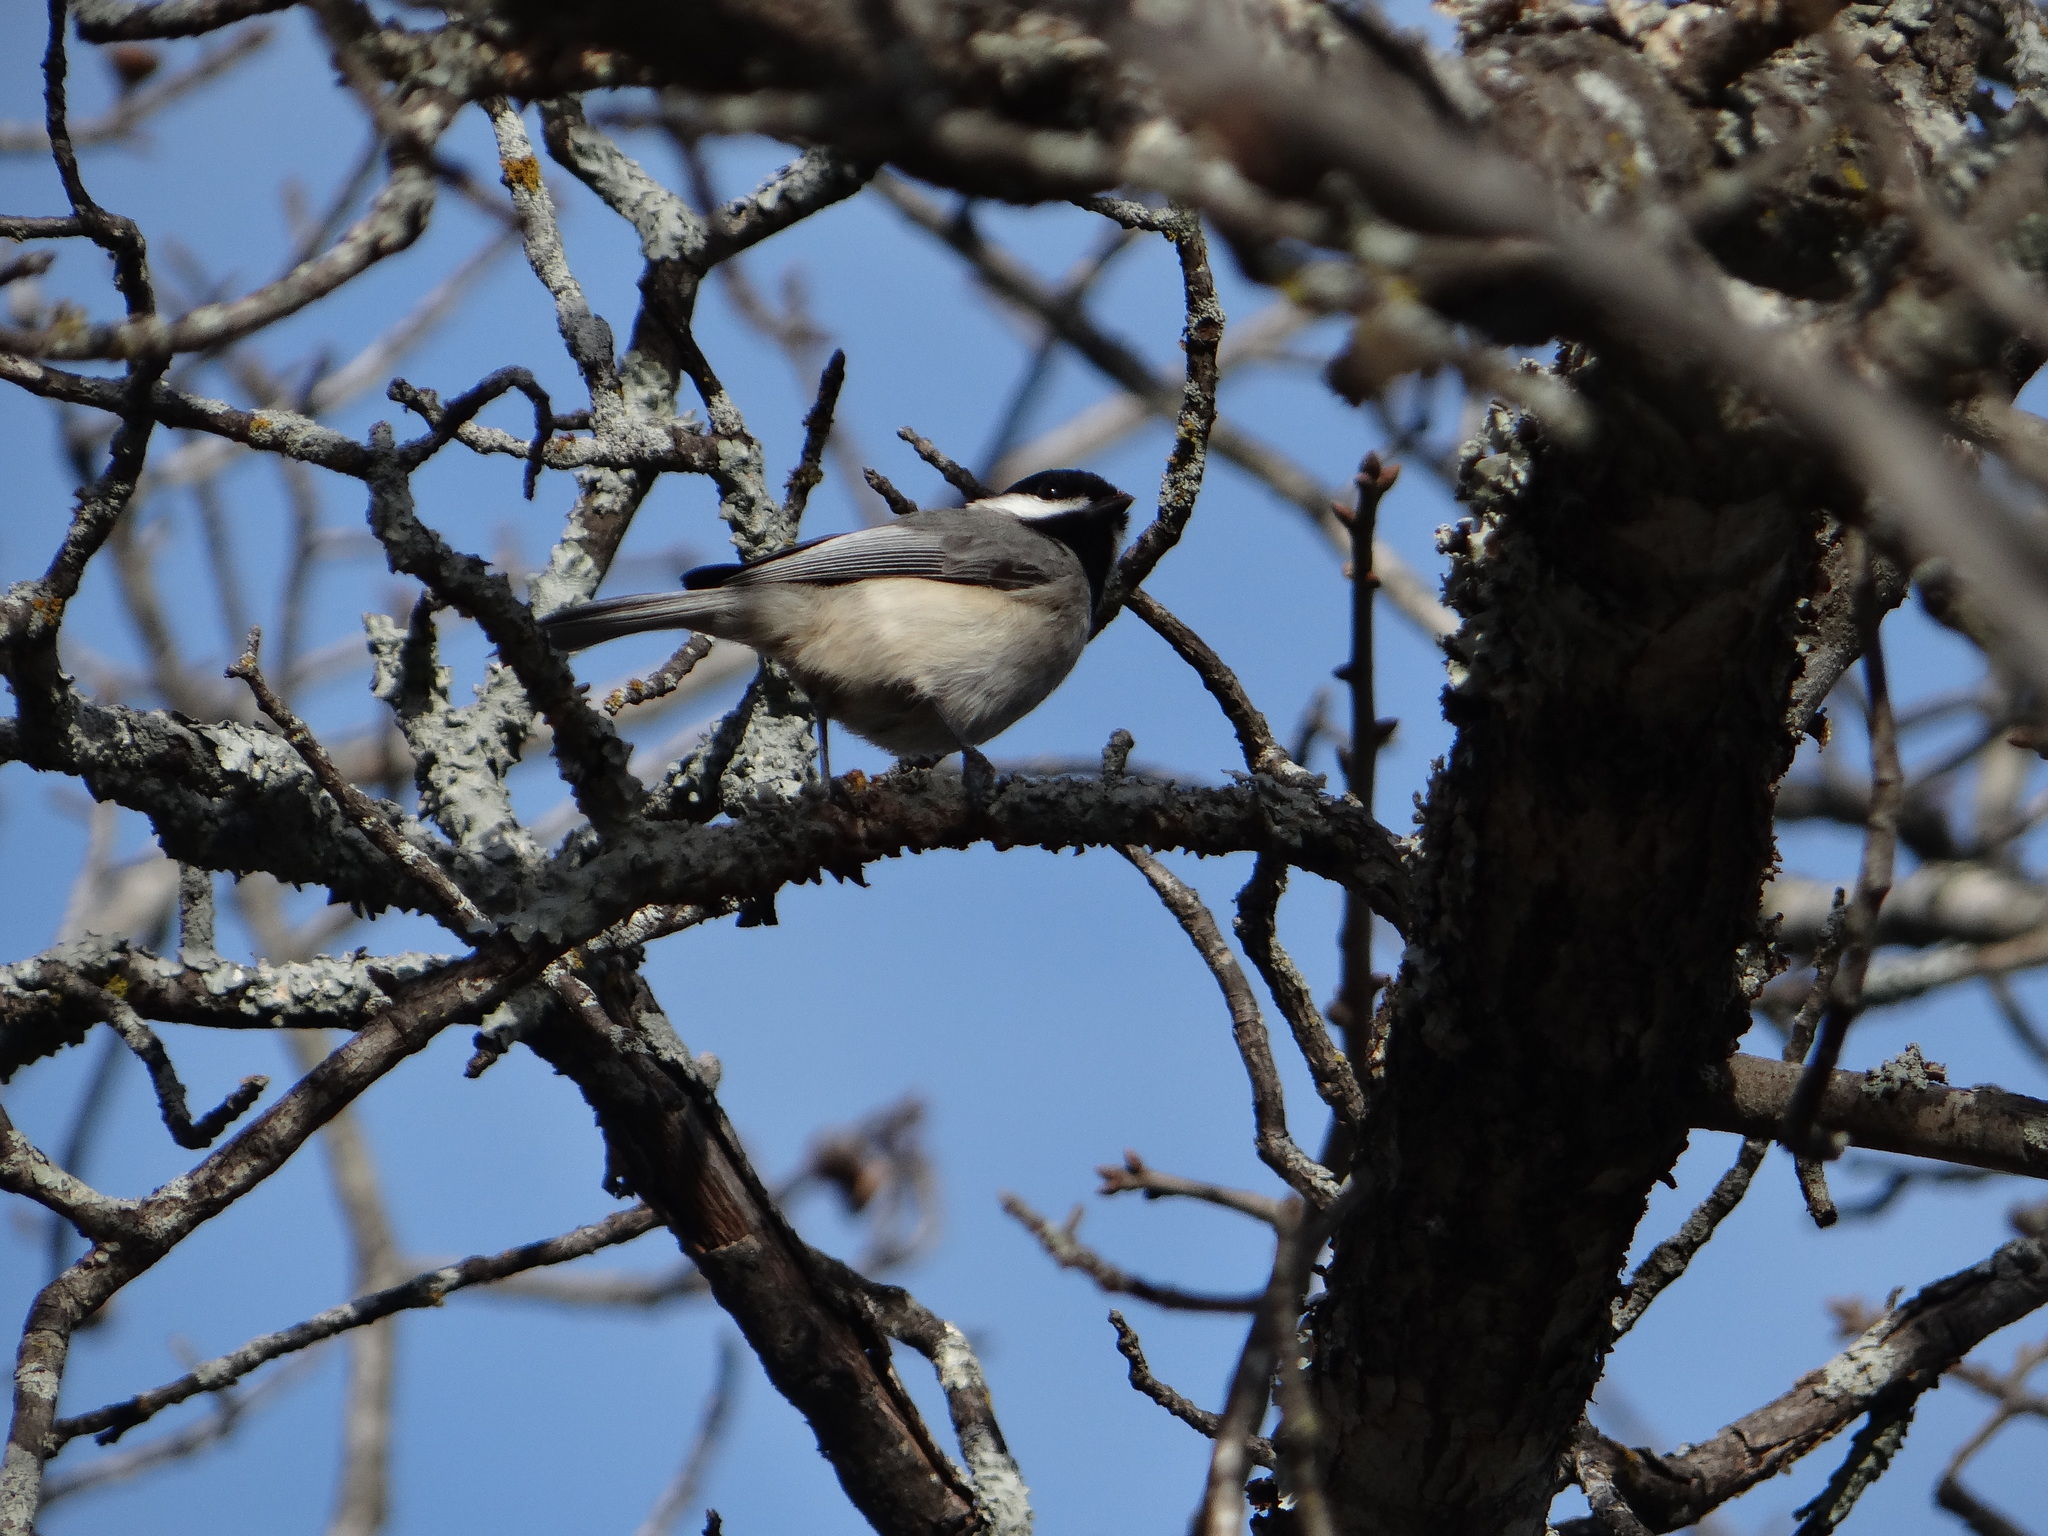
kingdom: Animalia
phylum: Chordata
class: Aves
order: Passeriformes
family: Paridae
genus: Poecile
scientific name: Poecile carolinensis
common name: Carolina chickadee
